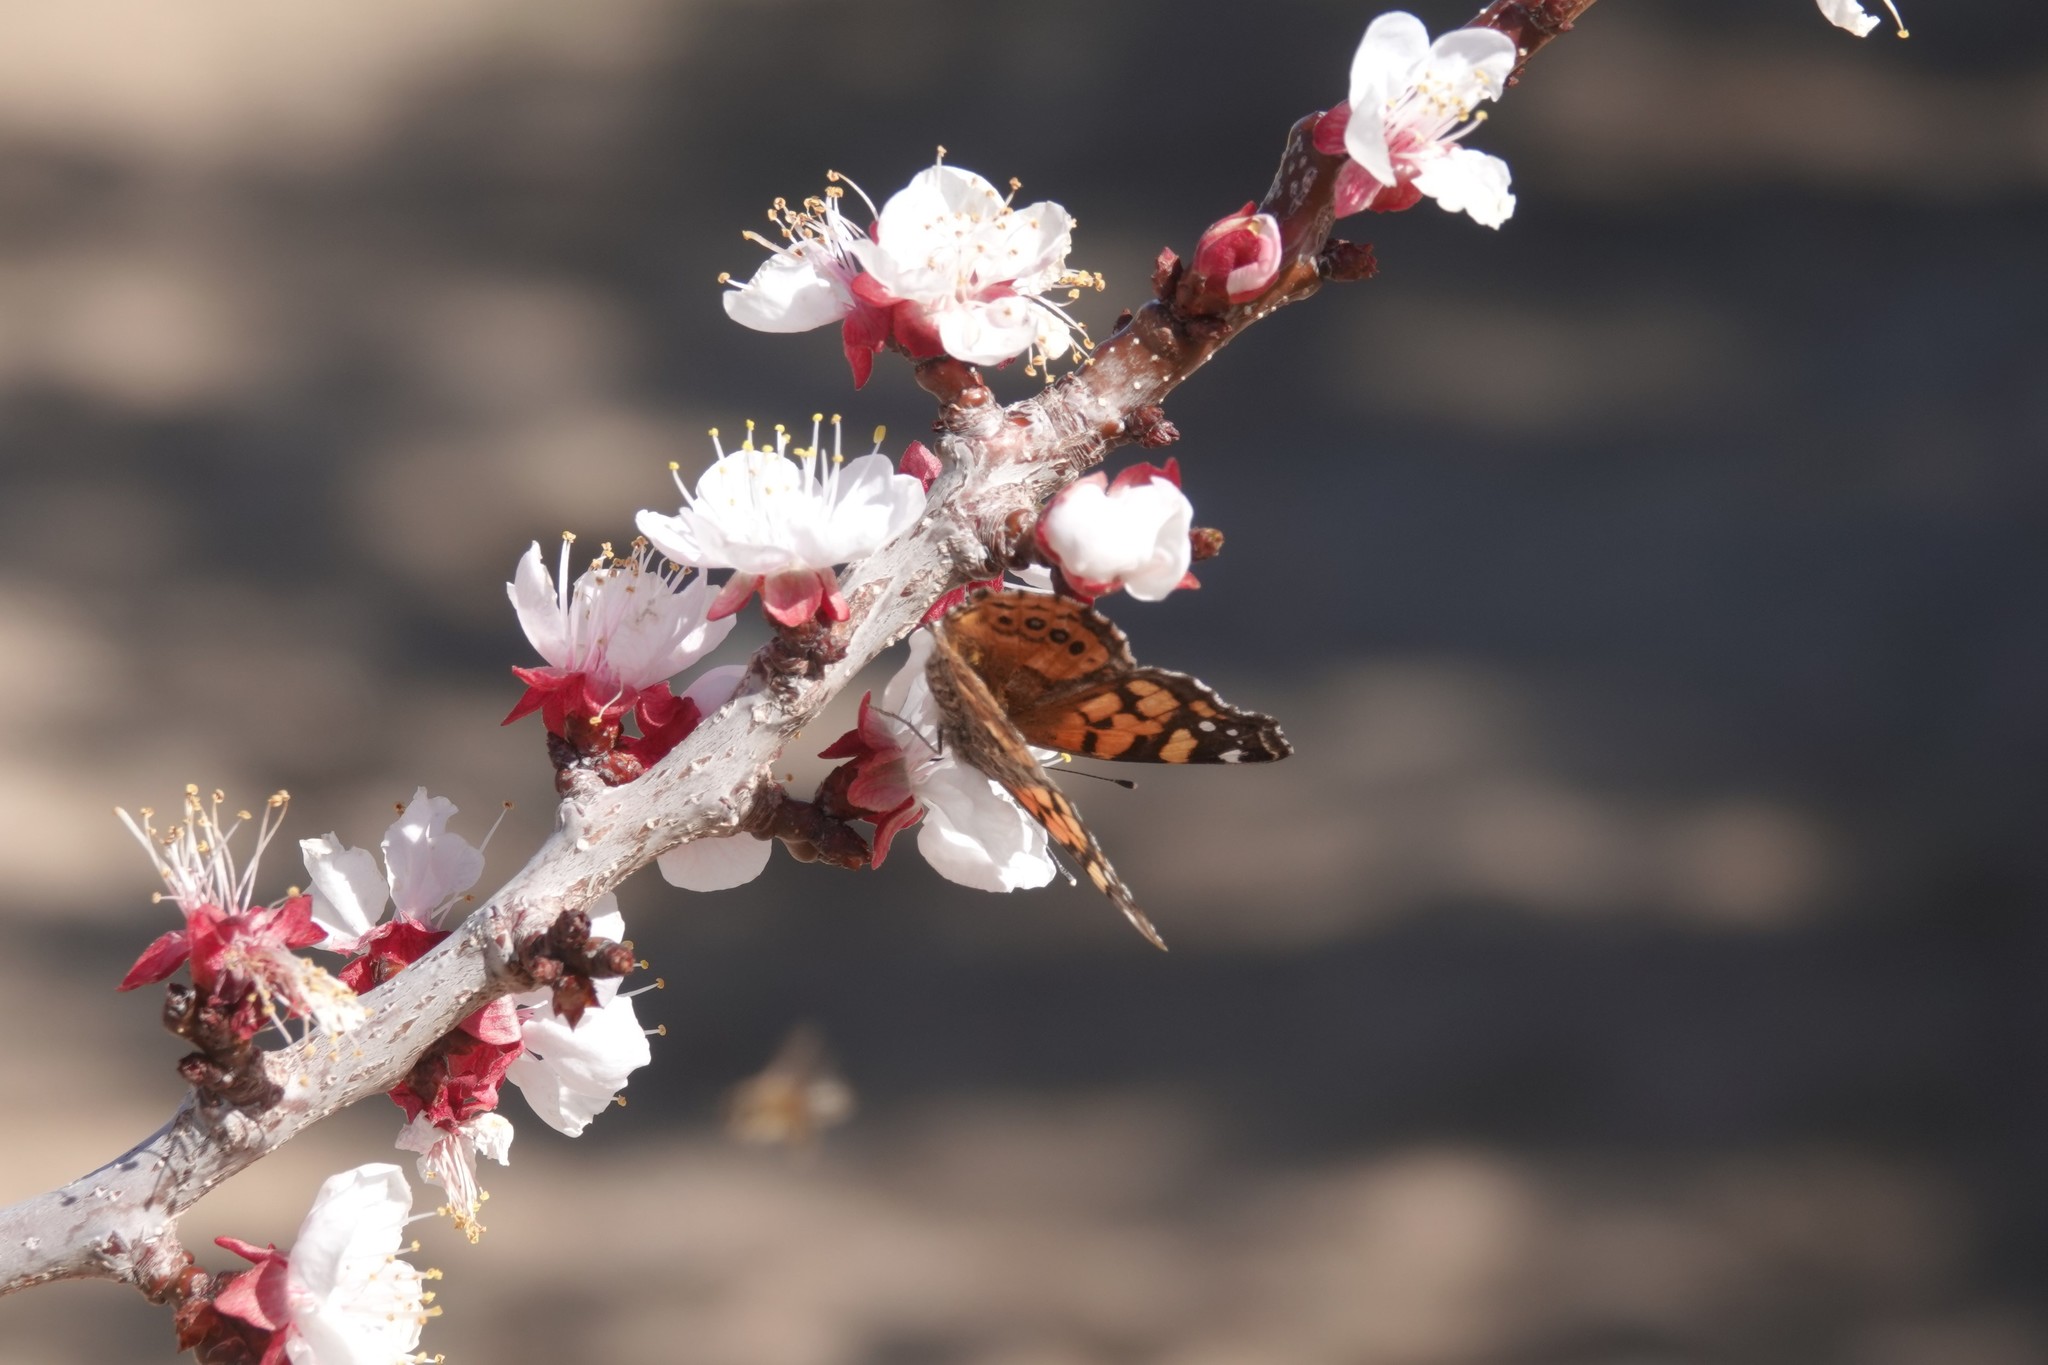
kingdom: Animalia
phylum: Arthropoda
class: Insecta
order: Lepidoptera
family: Nymphalidae
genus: Vanessa
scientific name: Vanessa annabella
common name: West coast lady
